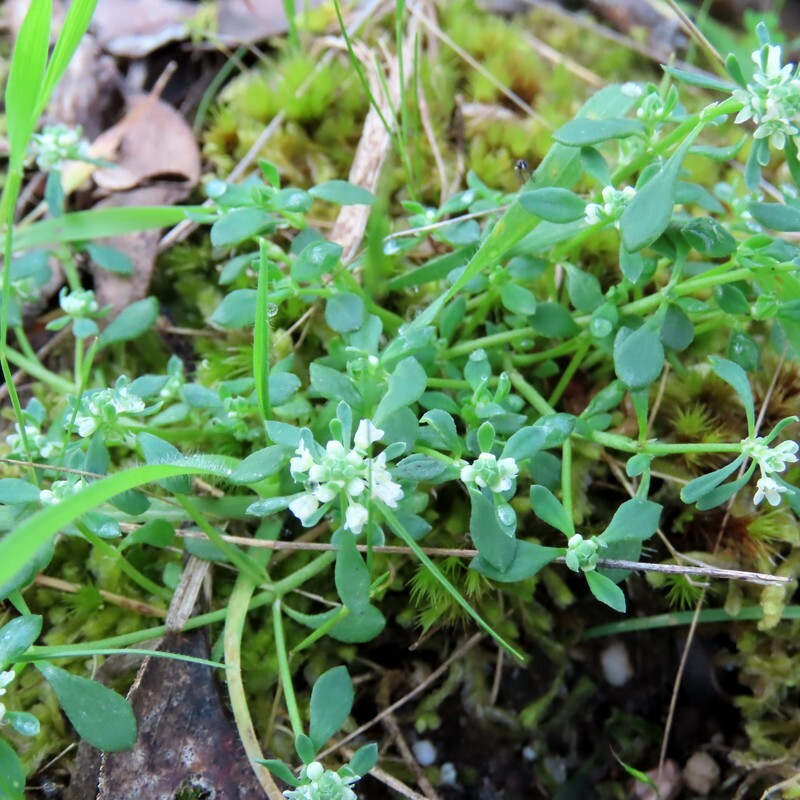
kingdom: Plantae
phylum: Tracheophyta
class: Magnoliopsida
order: Malpighiales
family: Phyllanthaceae
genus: Poranthera
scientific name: Poranthera microphylla
